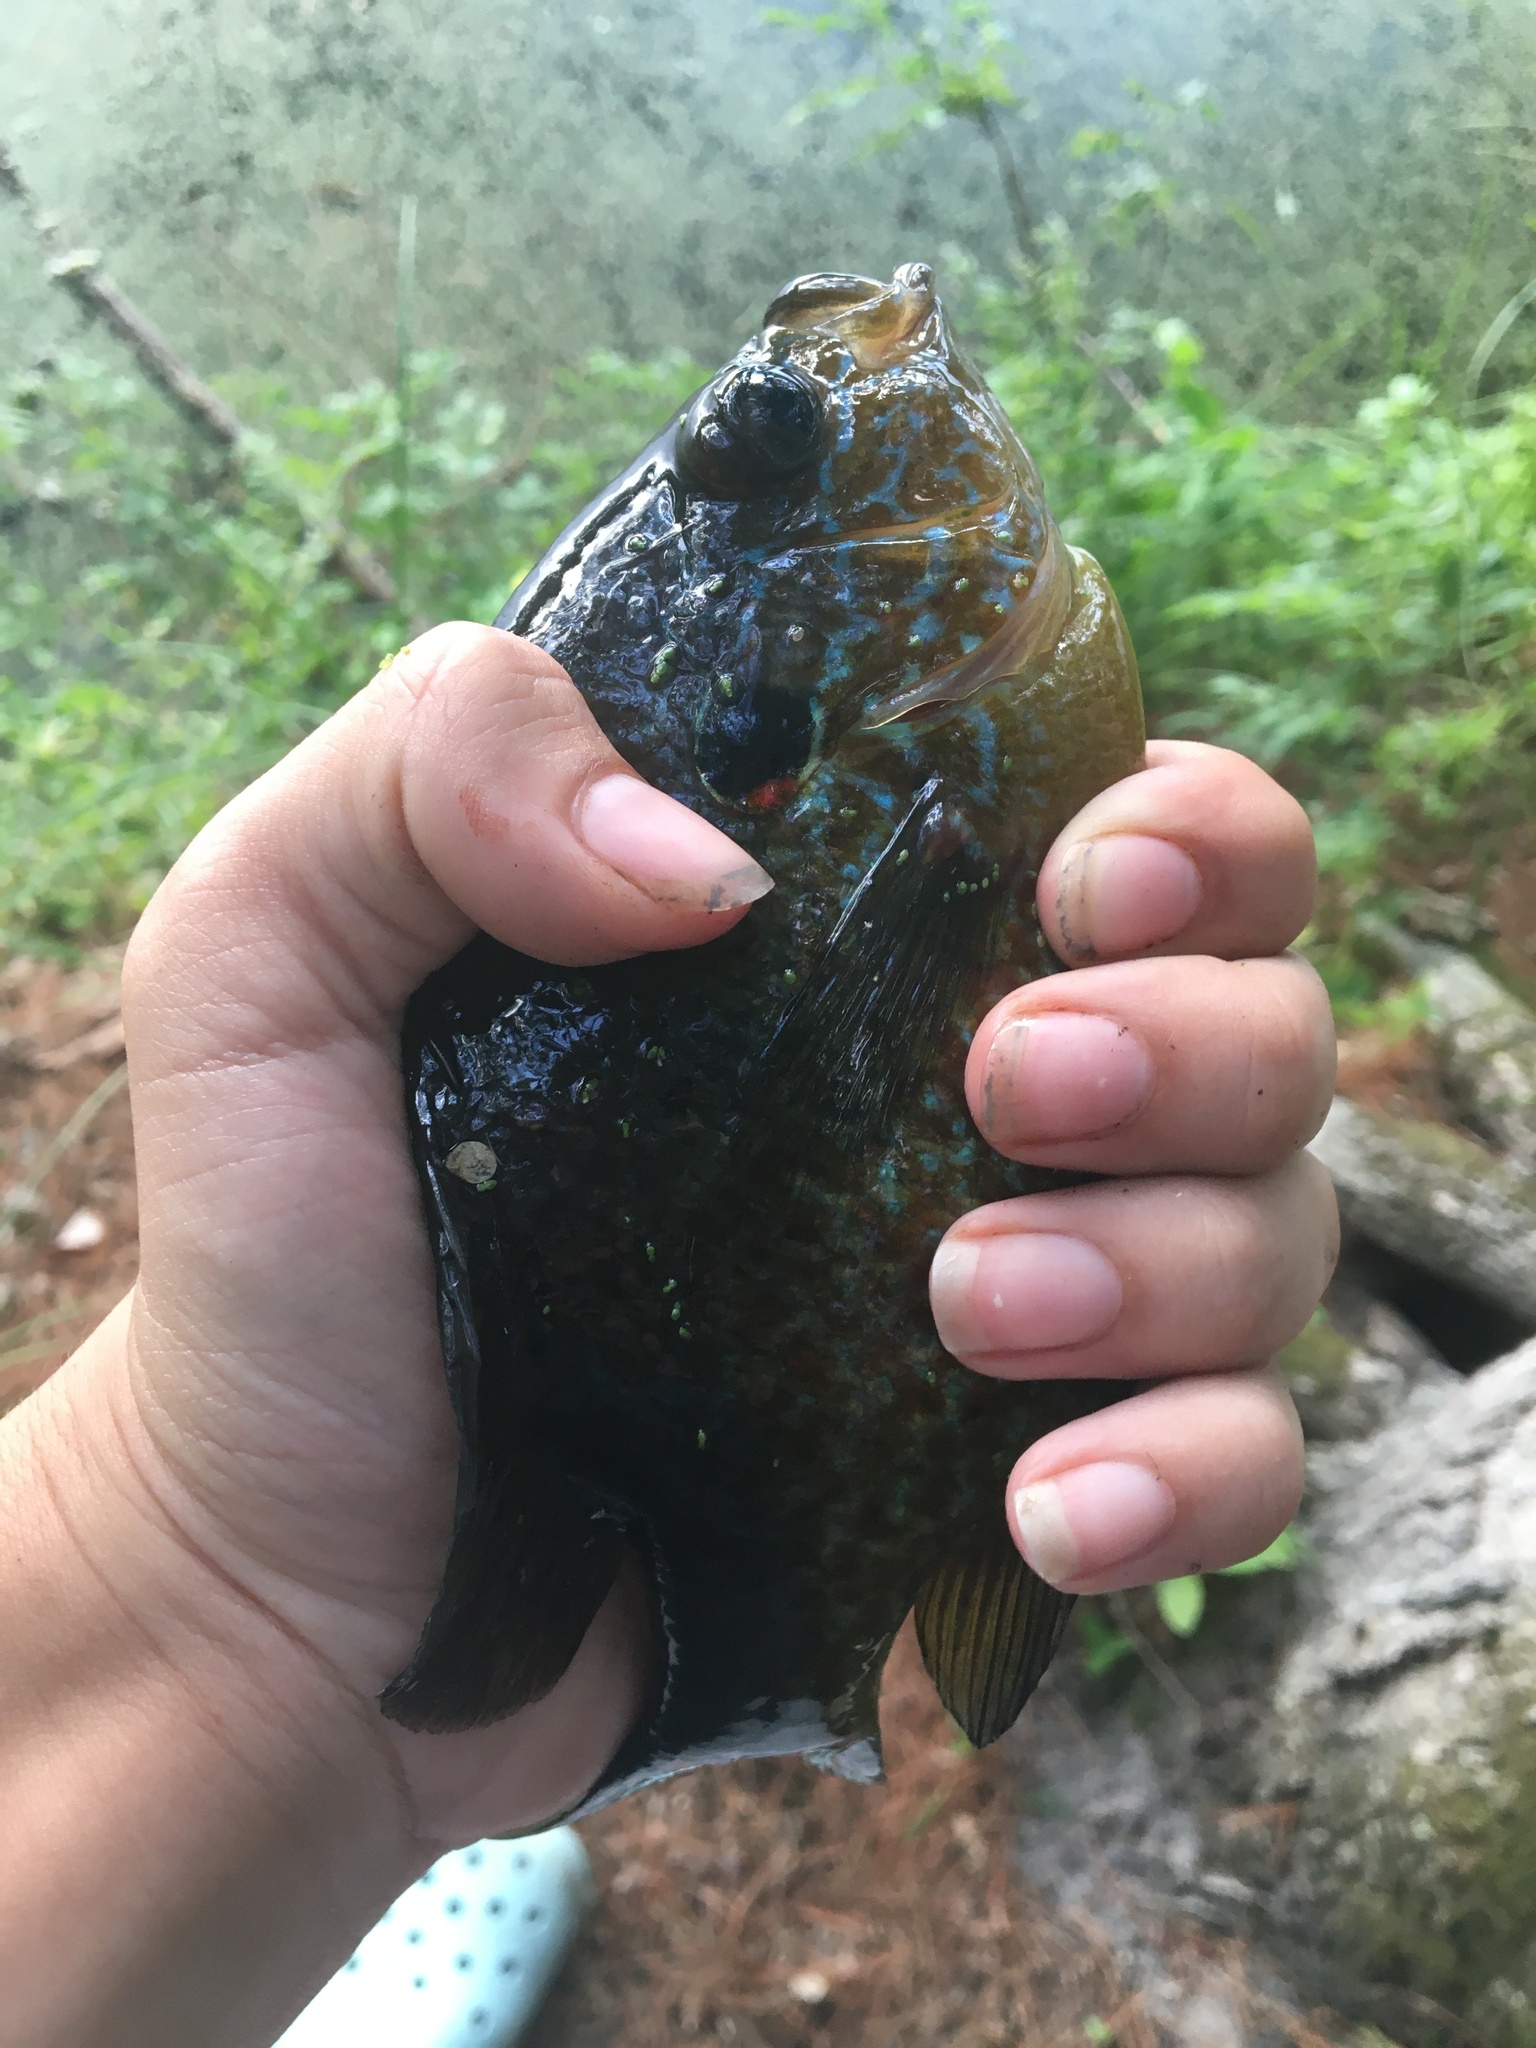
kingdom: Animalia
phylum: Chordata
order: Perciformes
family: Centrarchidae
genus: Lepomis
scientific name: Lepomis gibbosus
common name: Pumpkinseed
